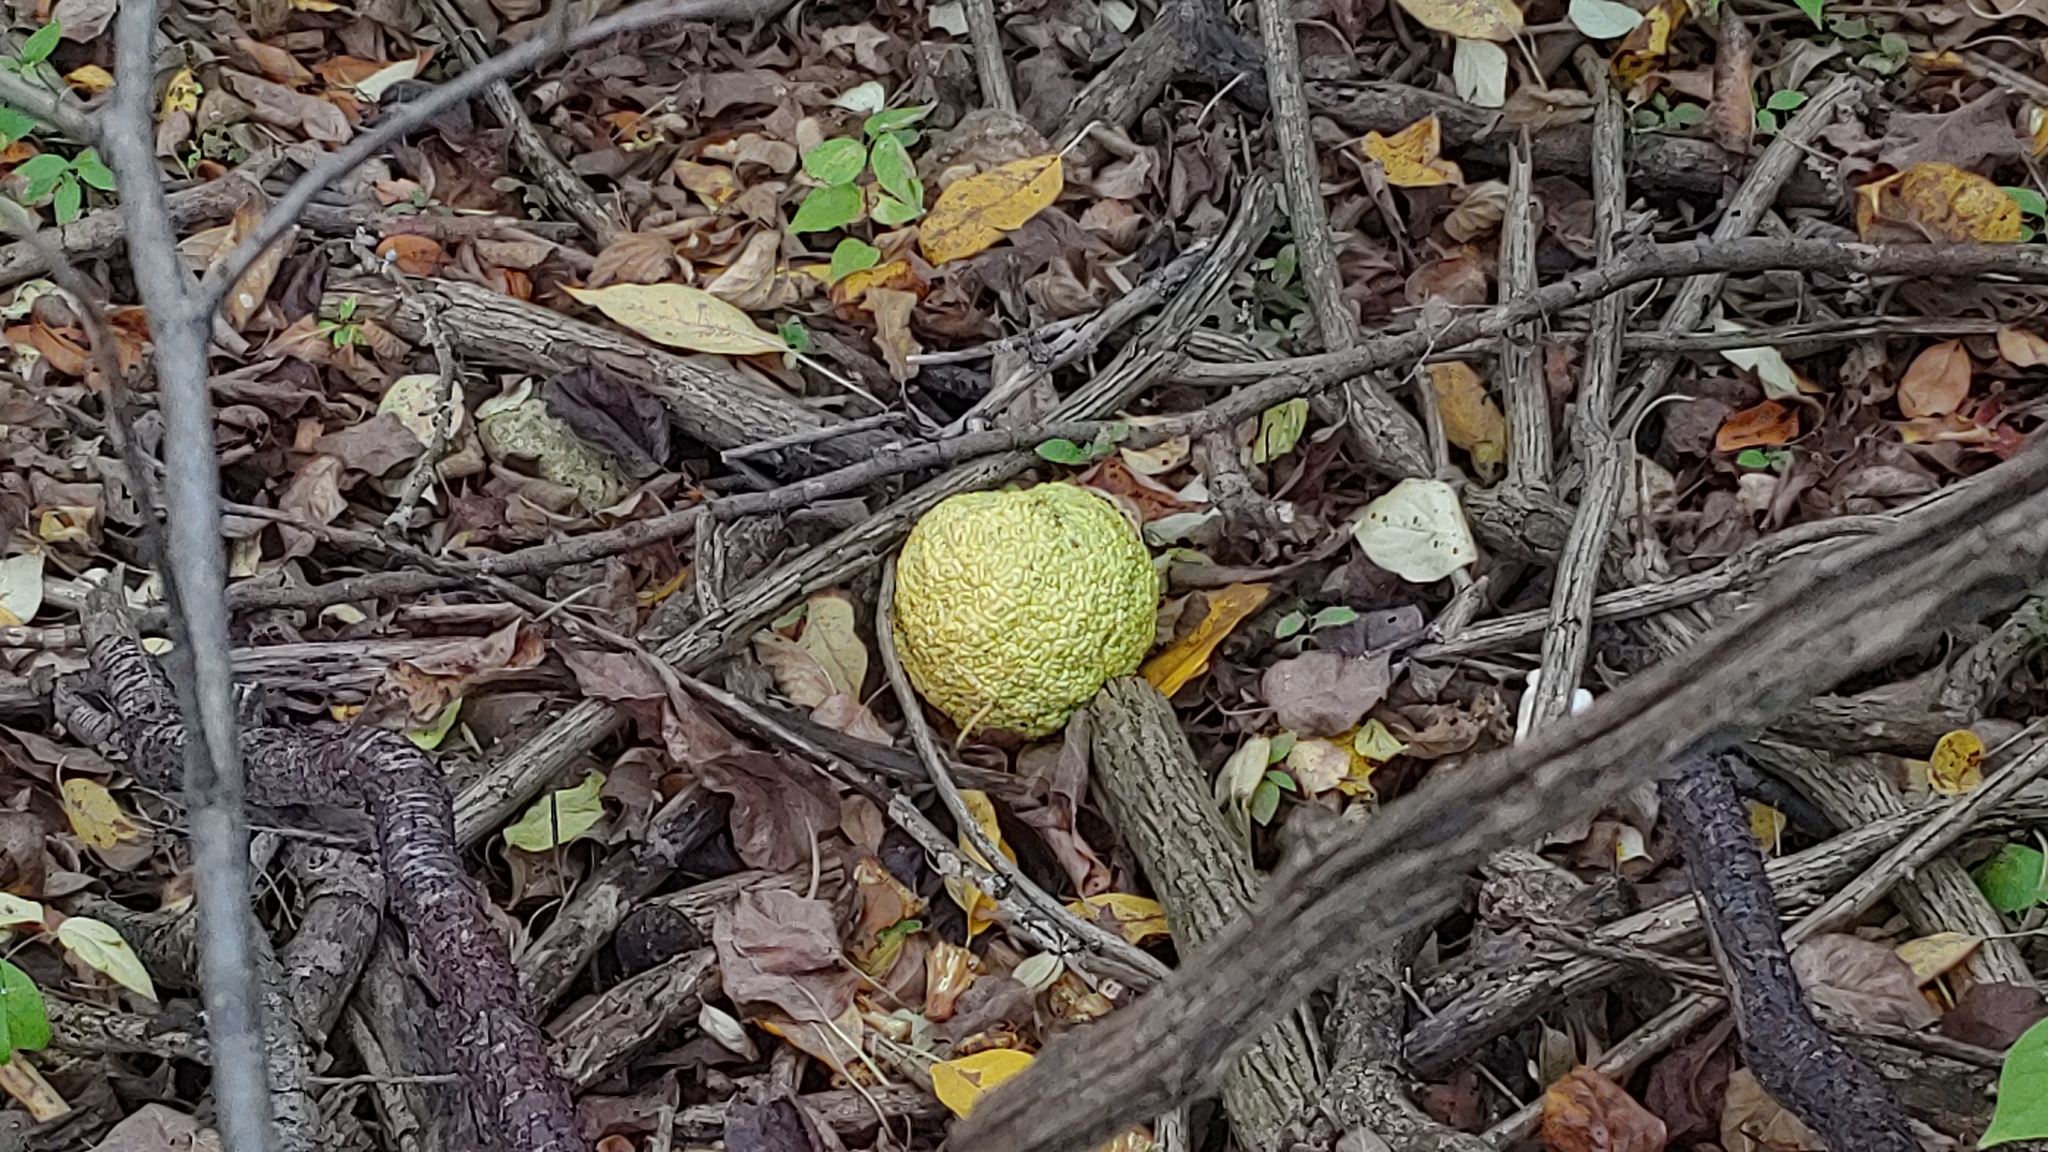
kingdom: Plantae
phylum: Tracheophyta
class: Magnoliopsida
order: Rosales
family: Moraceae
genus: Maclura
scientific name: Maclura pomifera
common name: Osage-orange
